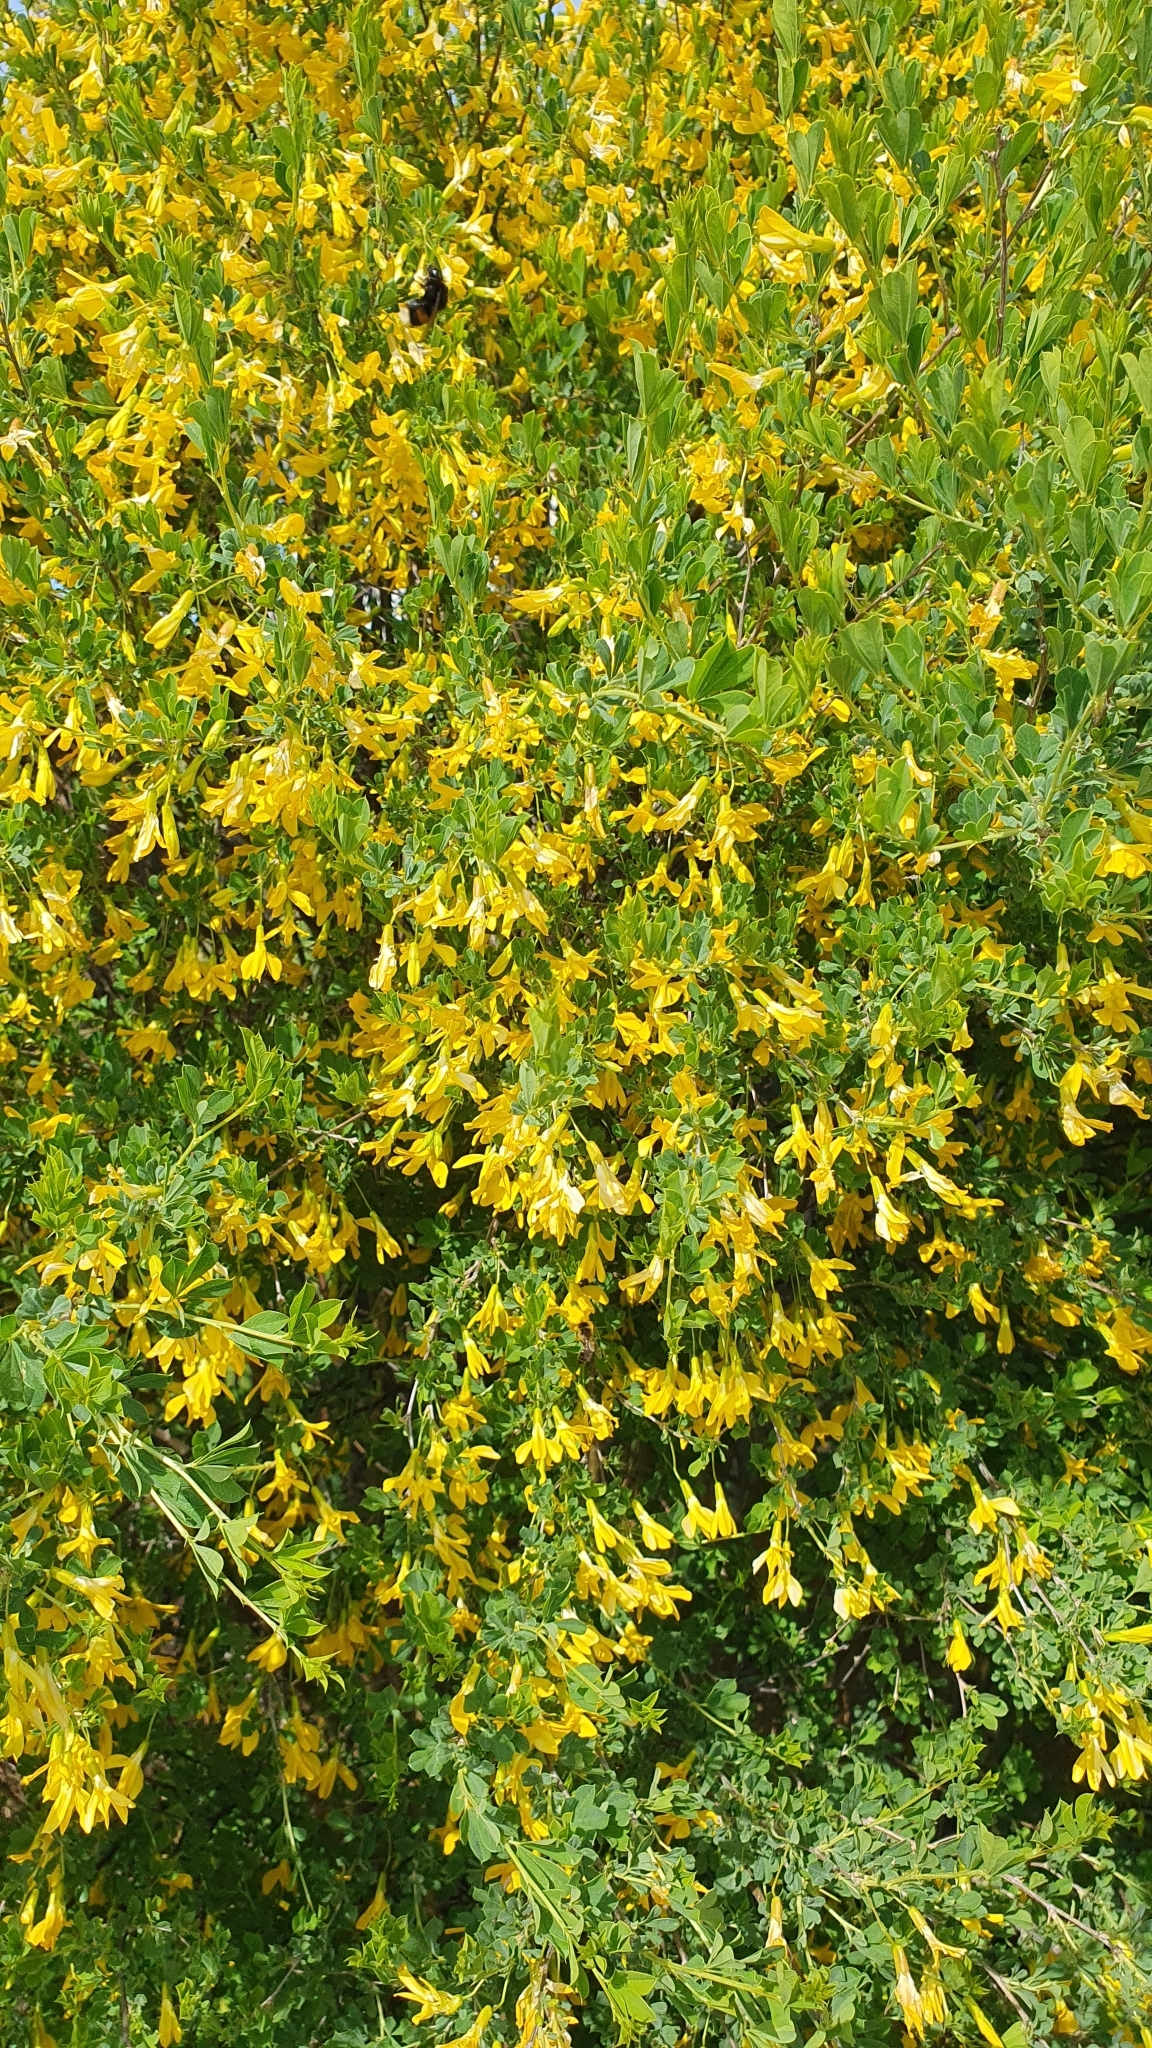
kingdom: Plantae
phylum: Tracheophyta
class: Magnoliopsida
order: Fabales
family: Fabaceae
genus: Caragana
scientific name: Caragana frutex
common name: Russian peashrub
